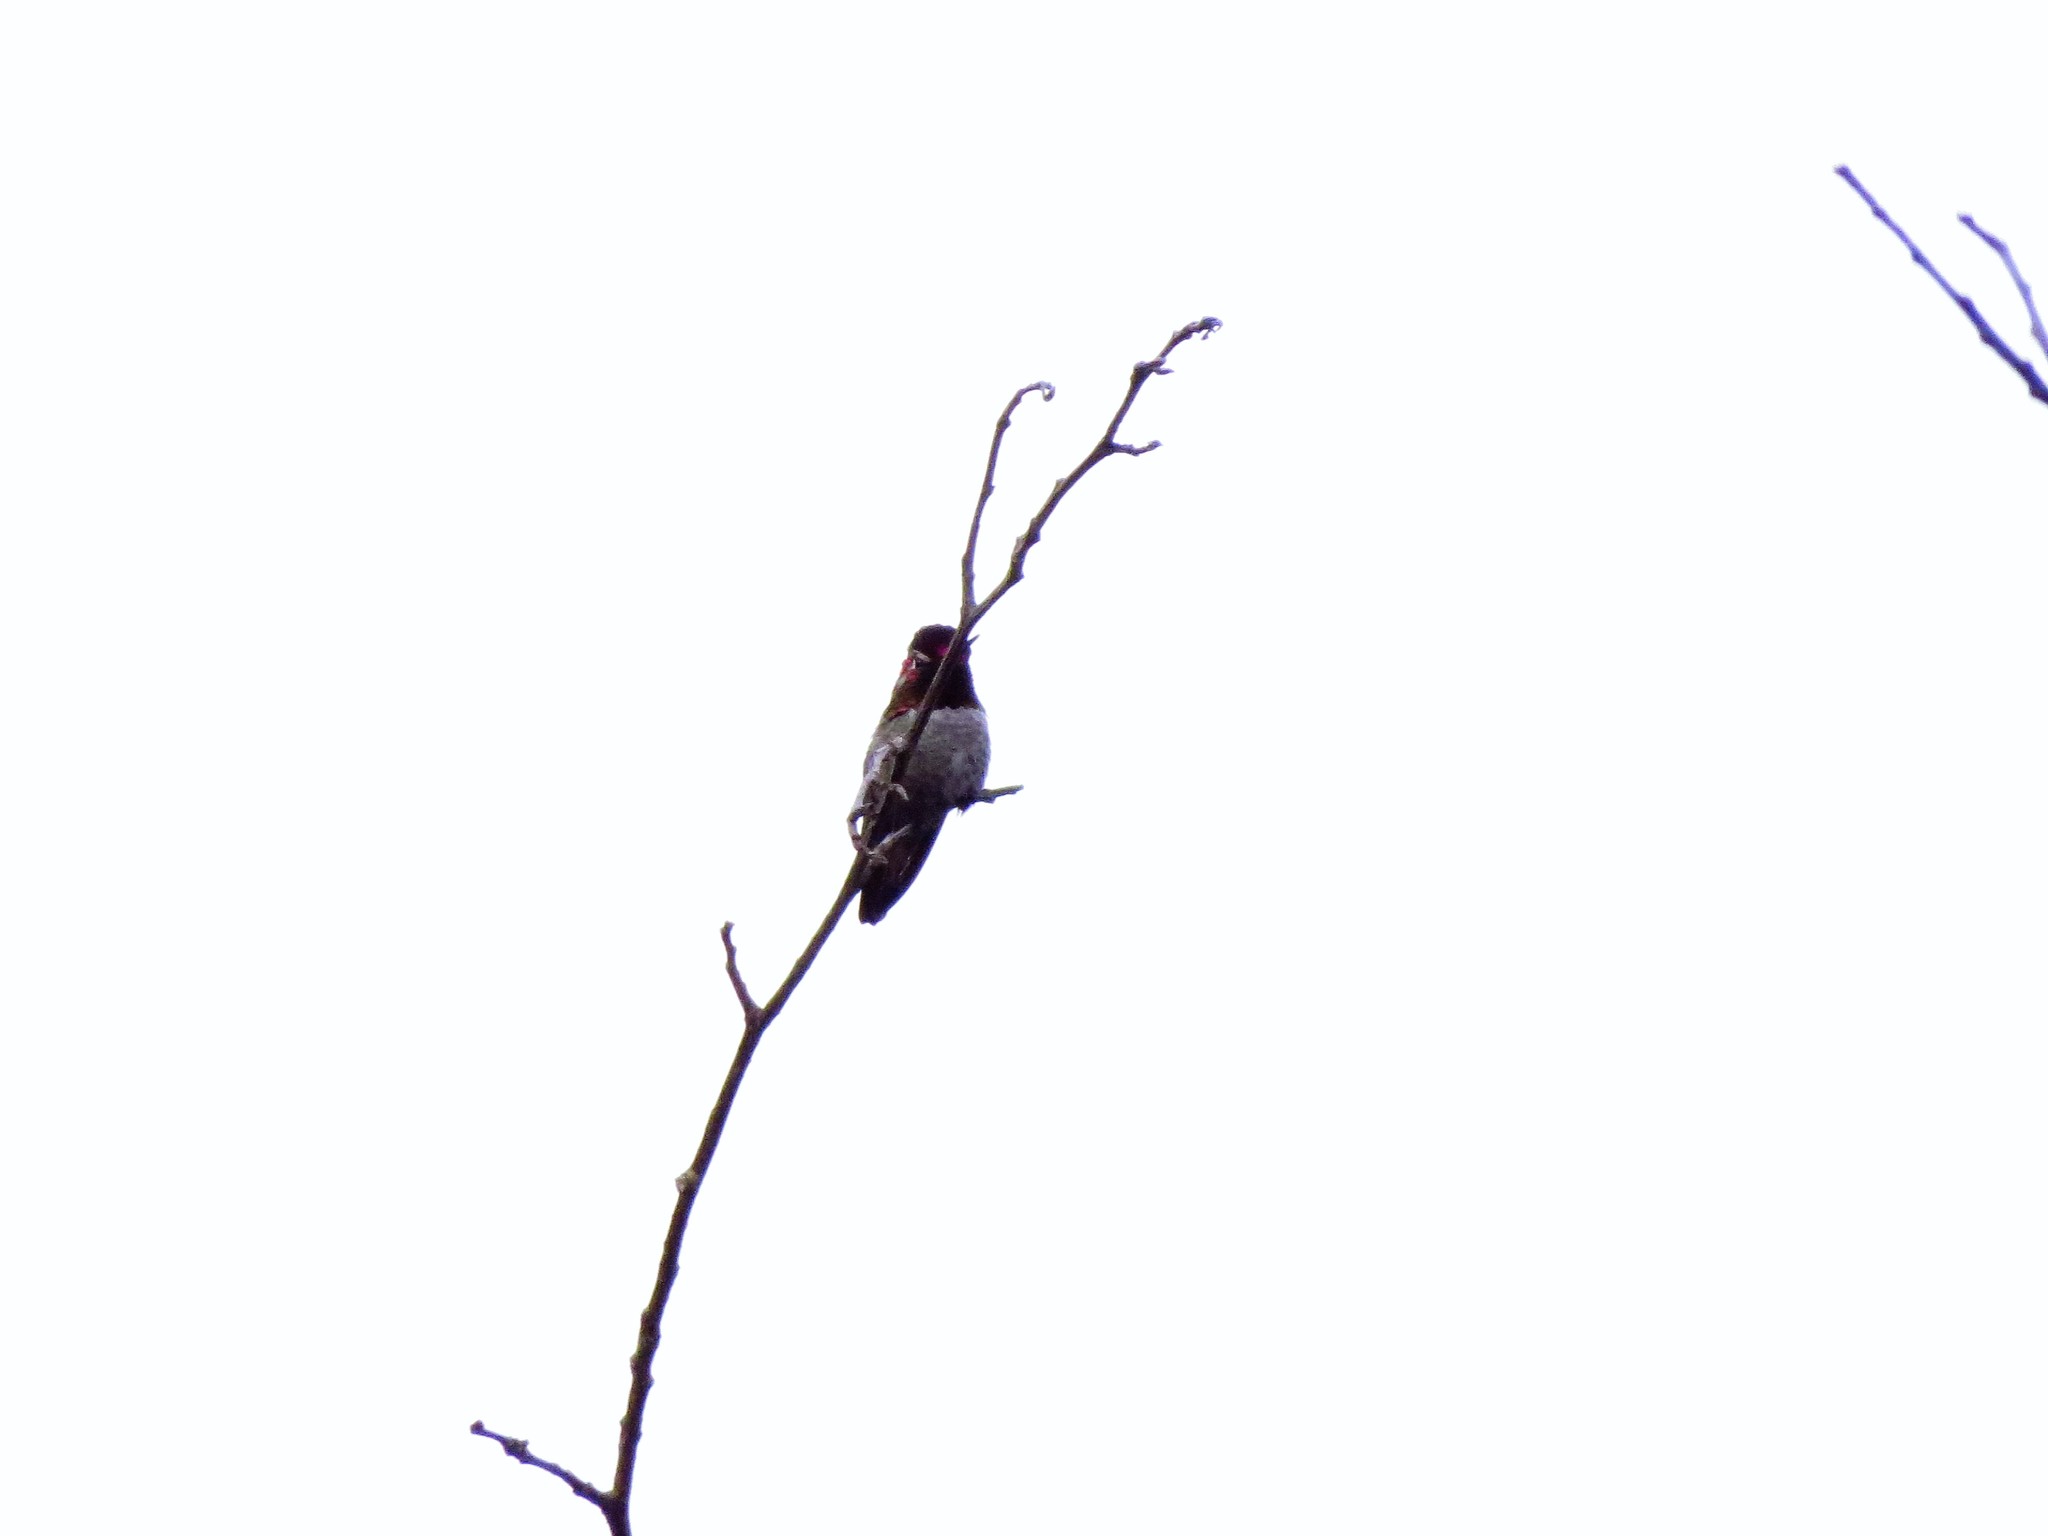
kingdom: Animalia
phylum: Chordata
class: Aves
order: Apodiformes
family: Trochilidae
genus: Calypte
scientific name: Calypte anna
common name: Anna's hummingbird
